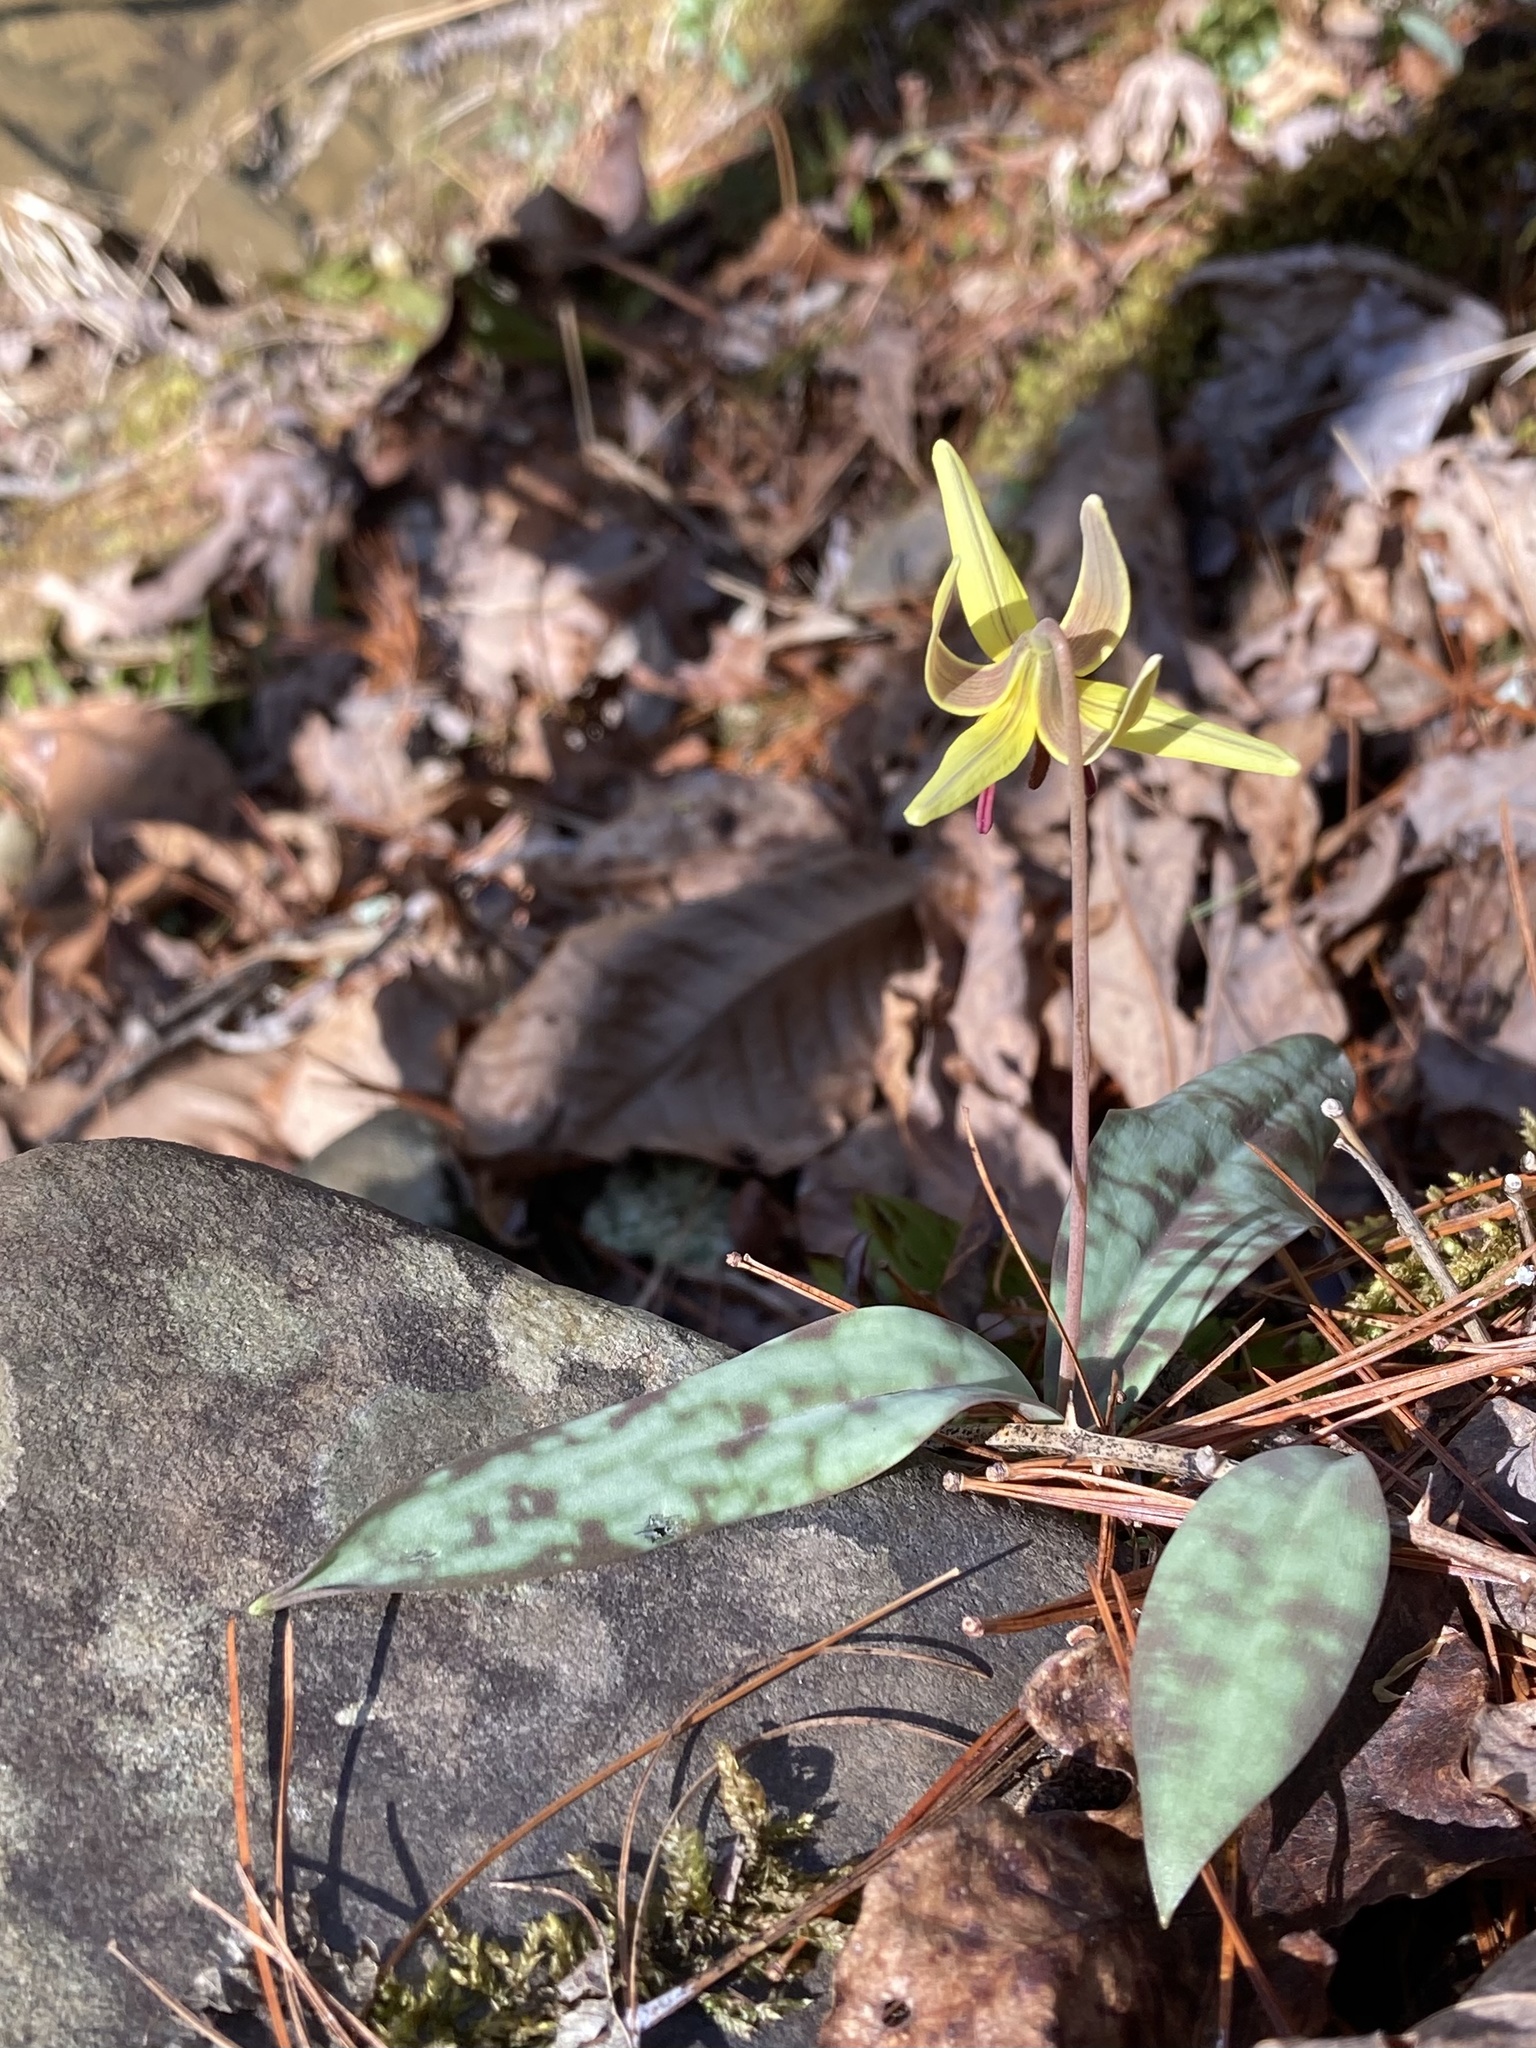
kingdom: Plantae
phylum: Tracheophyta
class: Liliopsida
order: Liliales
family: Liliaceae
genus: Erythronium
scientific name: Erythronium umbilicatum
